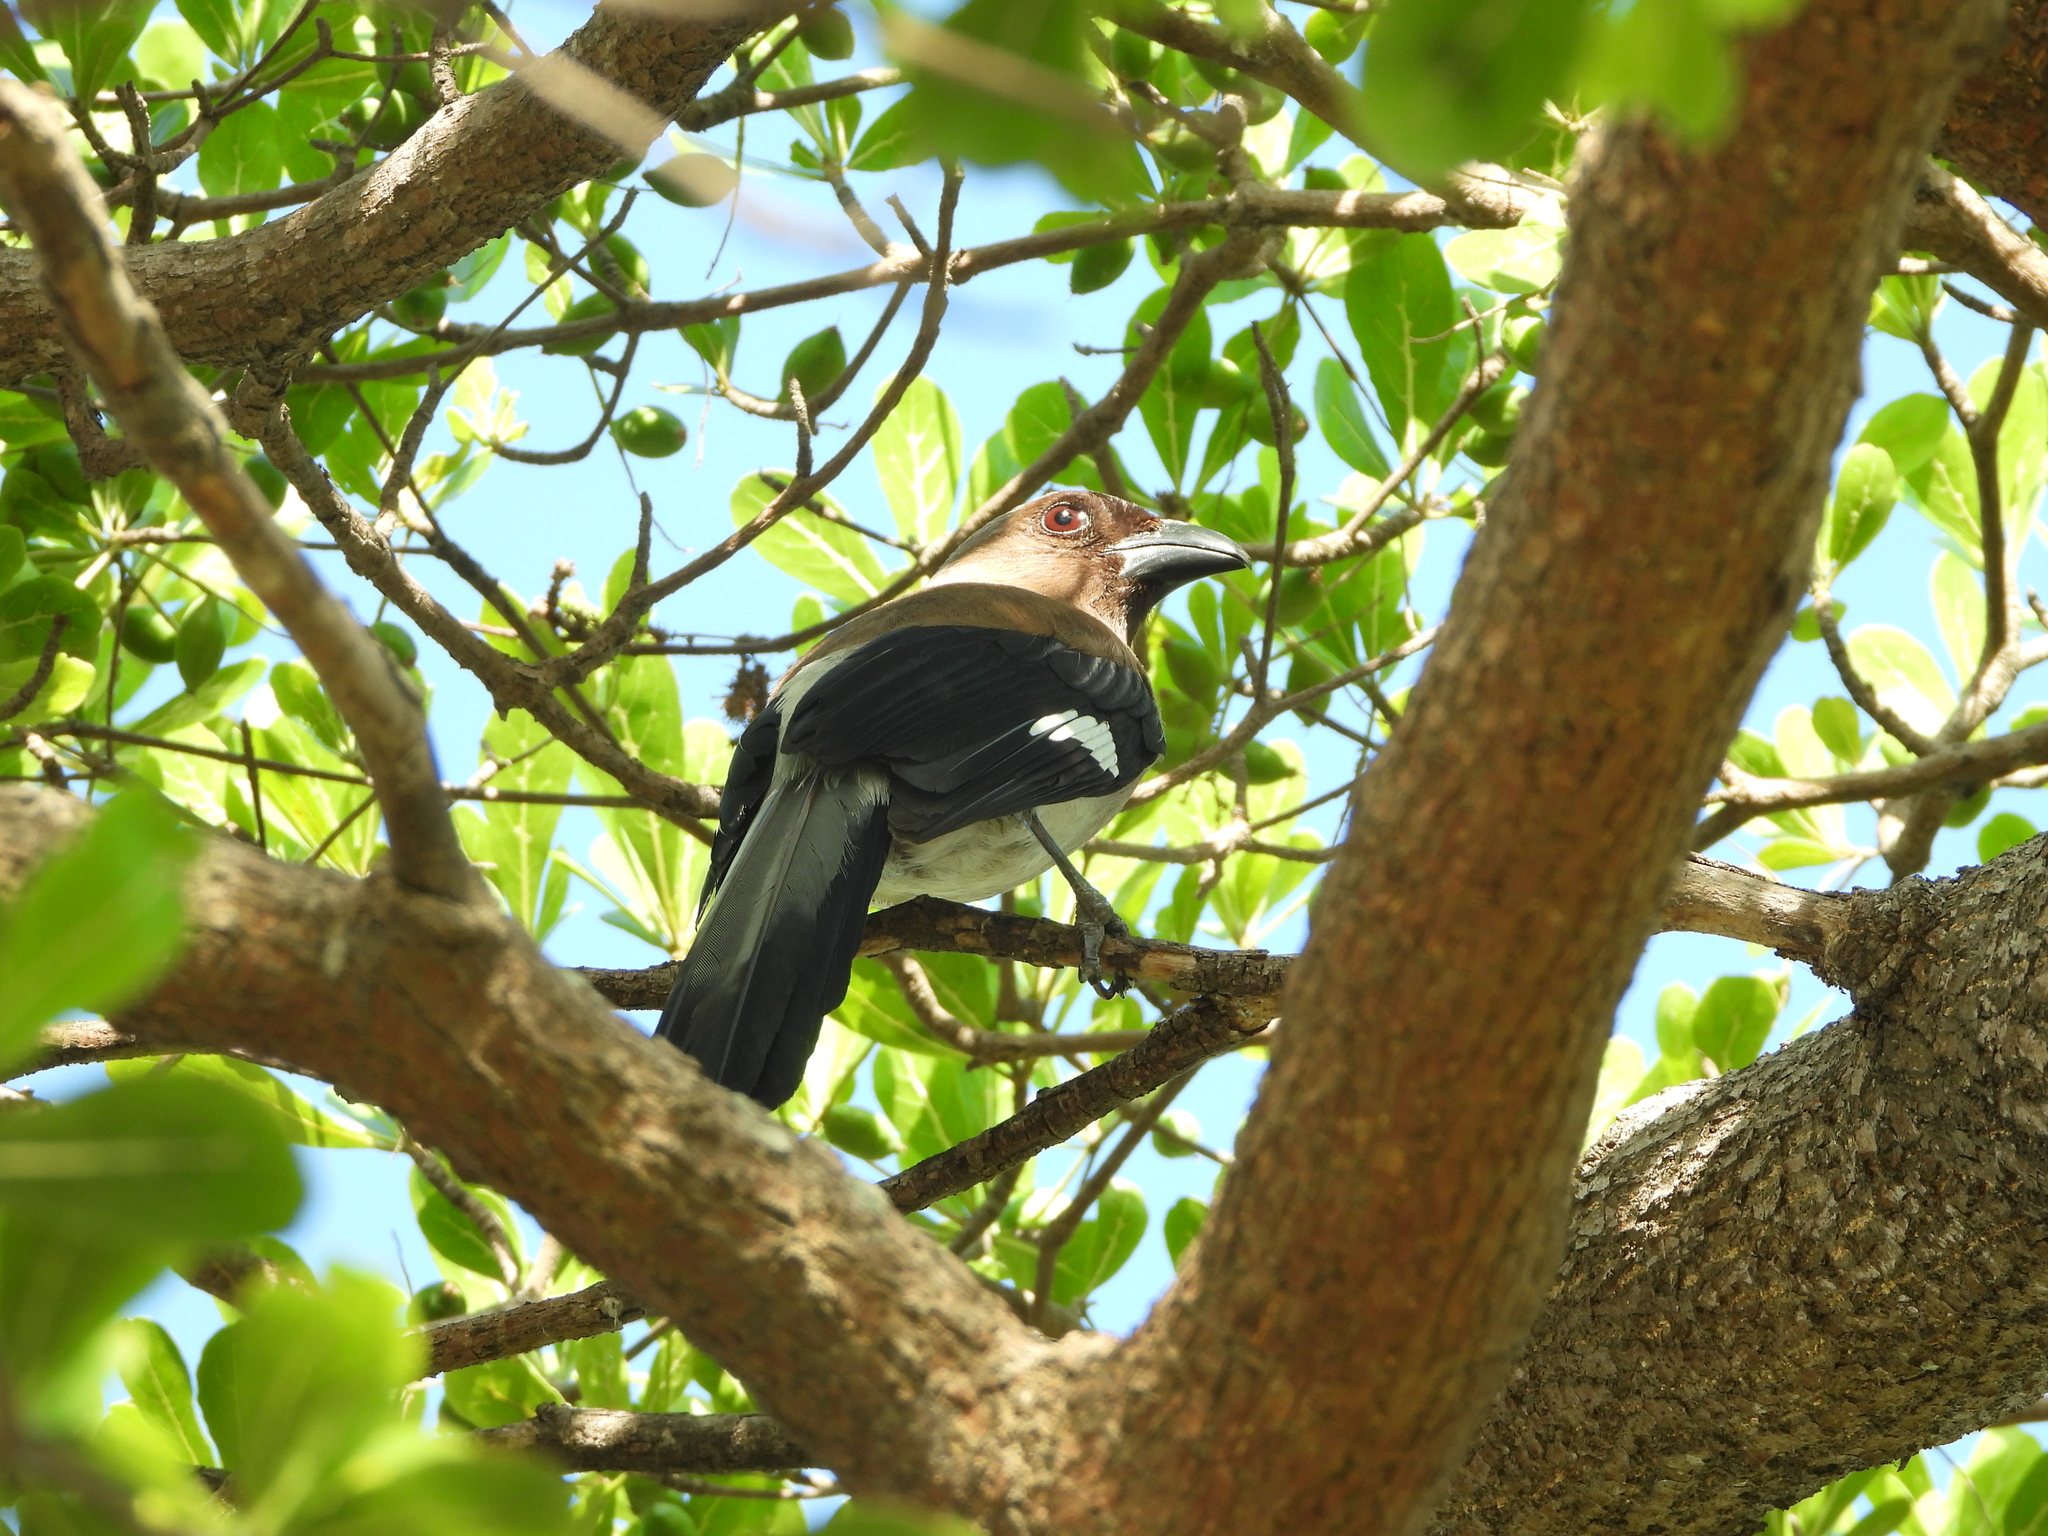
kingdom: Animalia
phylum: Chordata
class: Aves
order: Passeriformes
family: Corvidae
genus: Dendrocitta
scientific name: Dendrocitta formosae
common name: Grey treepie
